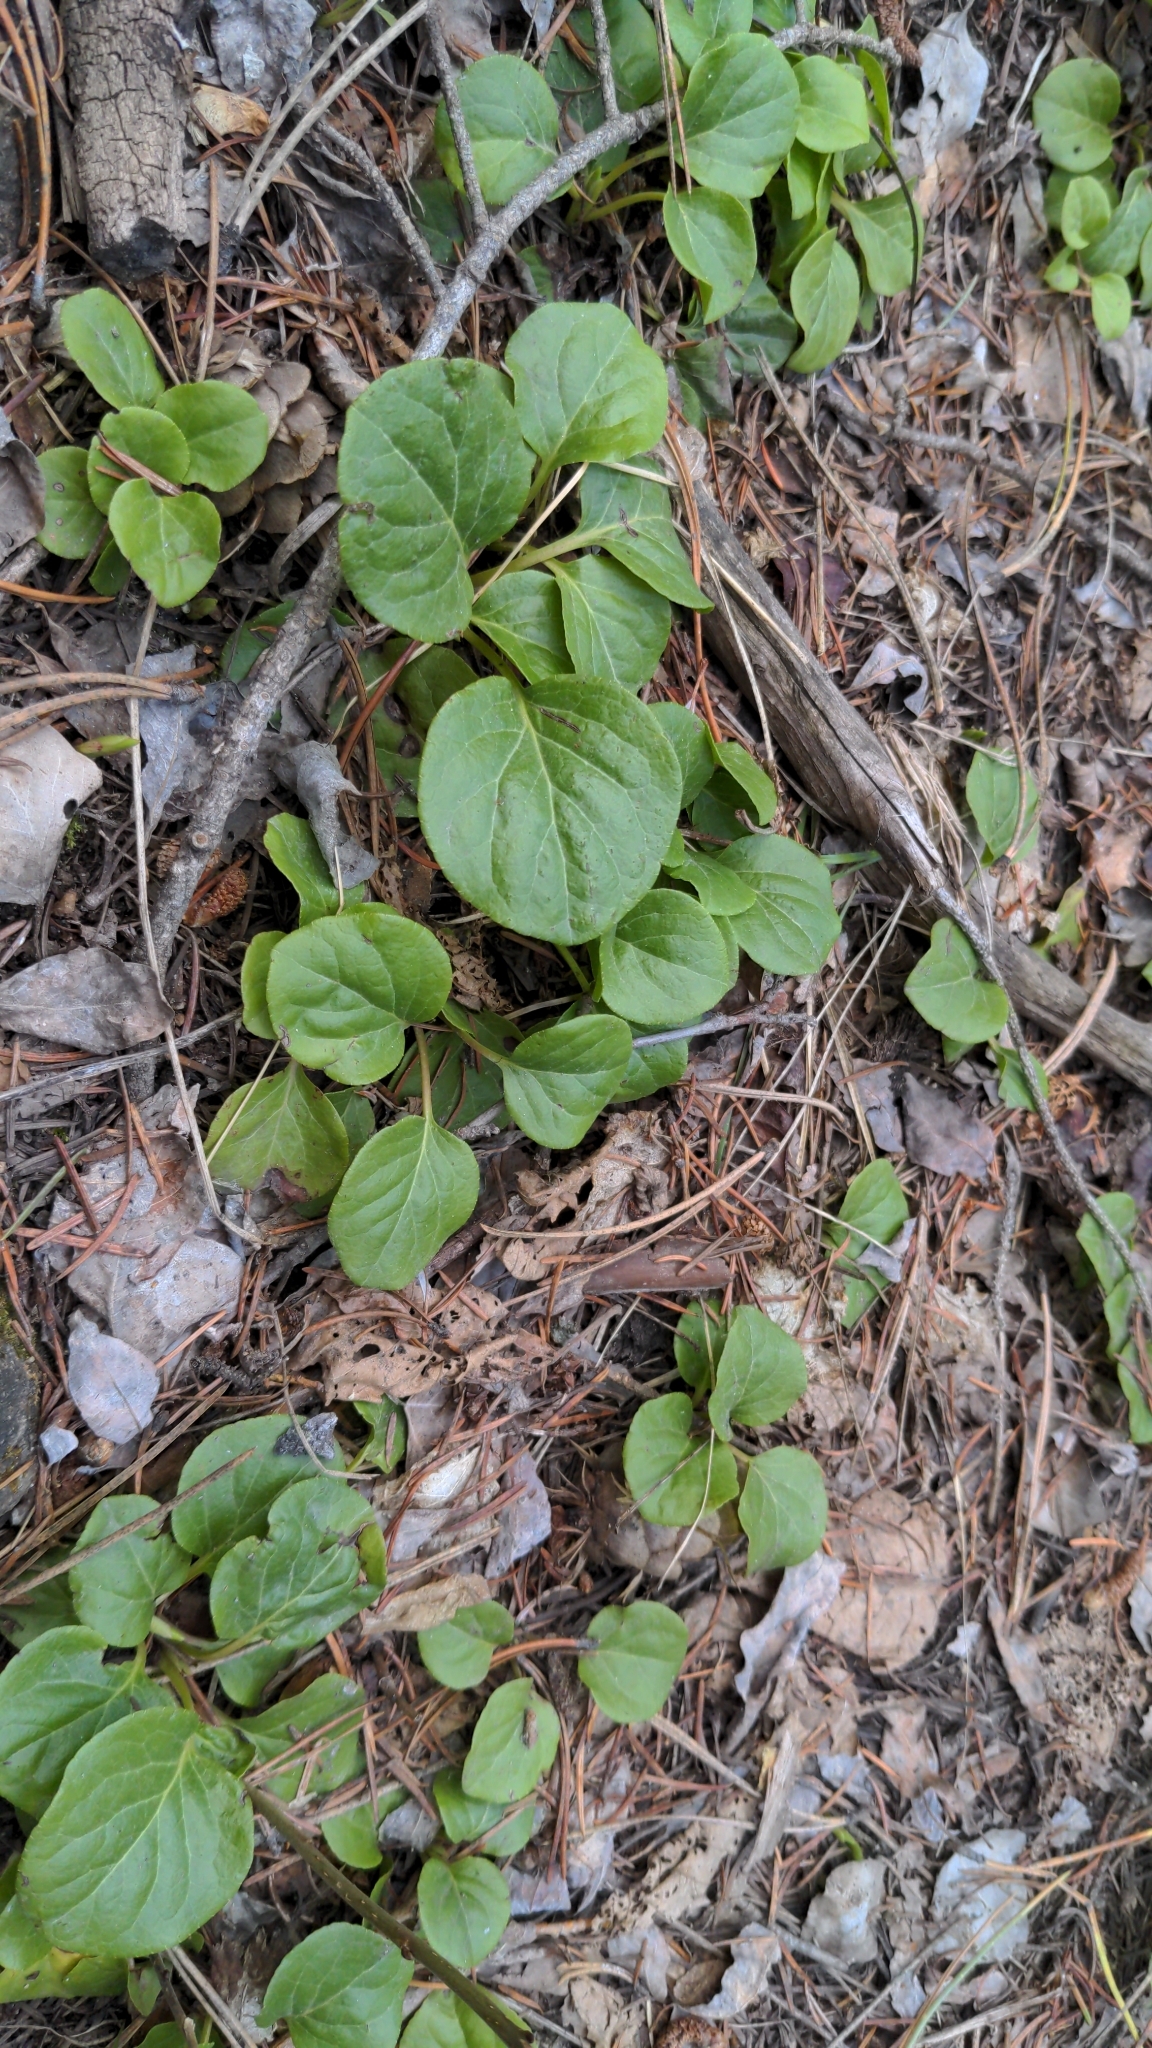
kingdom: Plantae
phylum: Tracheophyta
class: Magnoliopsida
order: Ericales
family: Ericaceae
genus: Pyrola
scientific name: Pyrola asarifolia
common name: Bog wintergreen
